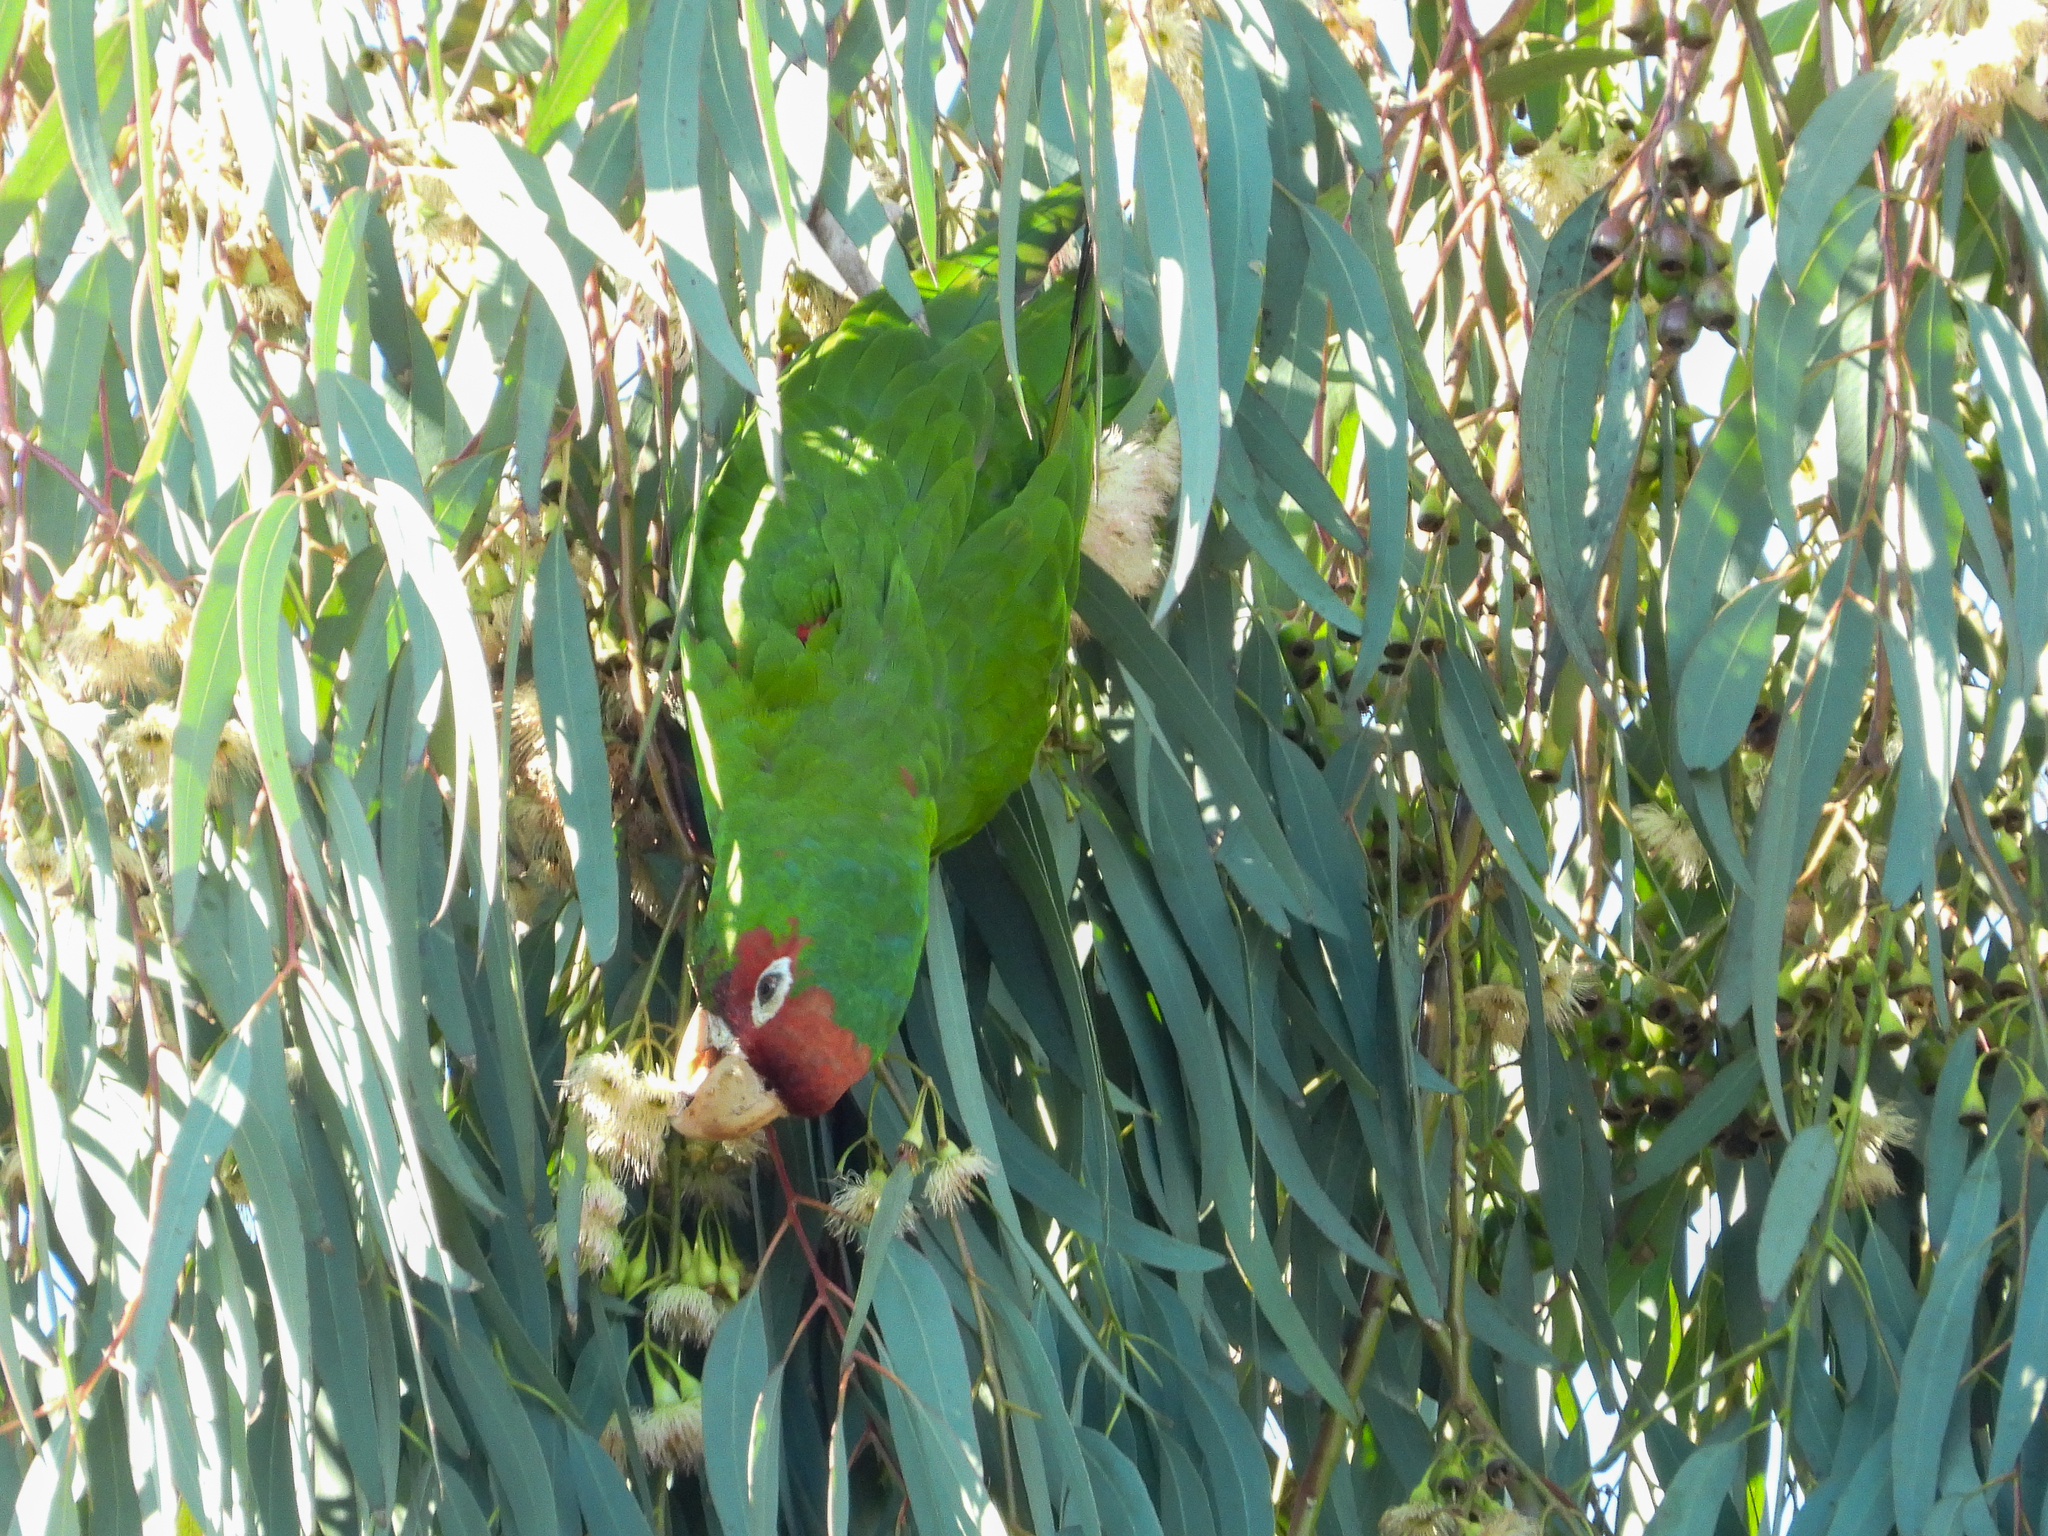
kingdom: Animalia
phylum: Chordata
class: Aves
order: Psittaciformes
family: Psittacidae
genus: Aratinga
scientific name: Aratinga mitrata
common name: Mitred parakeet
